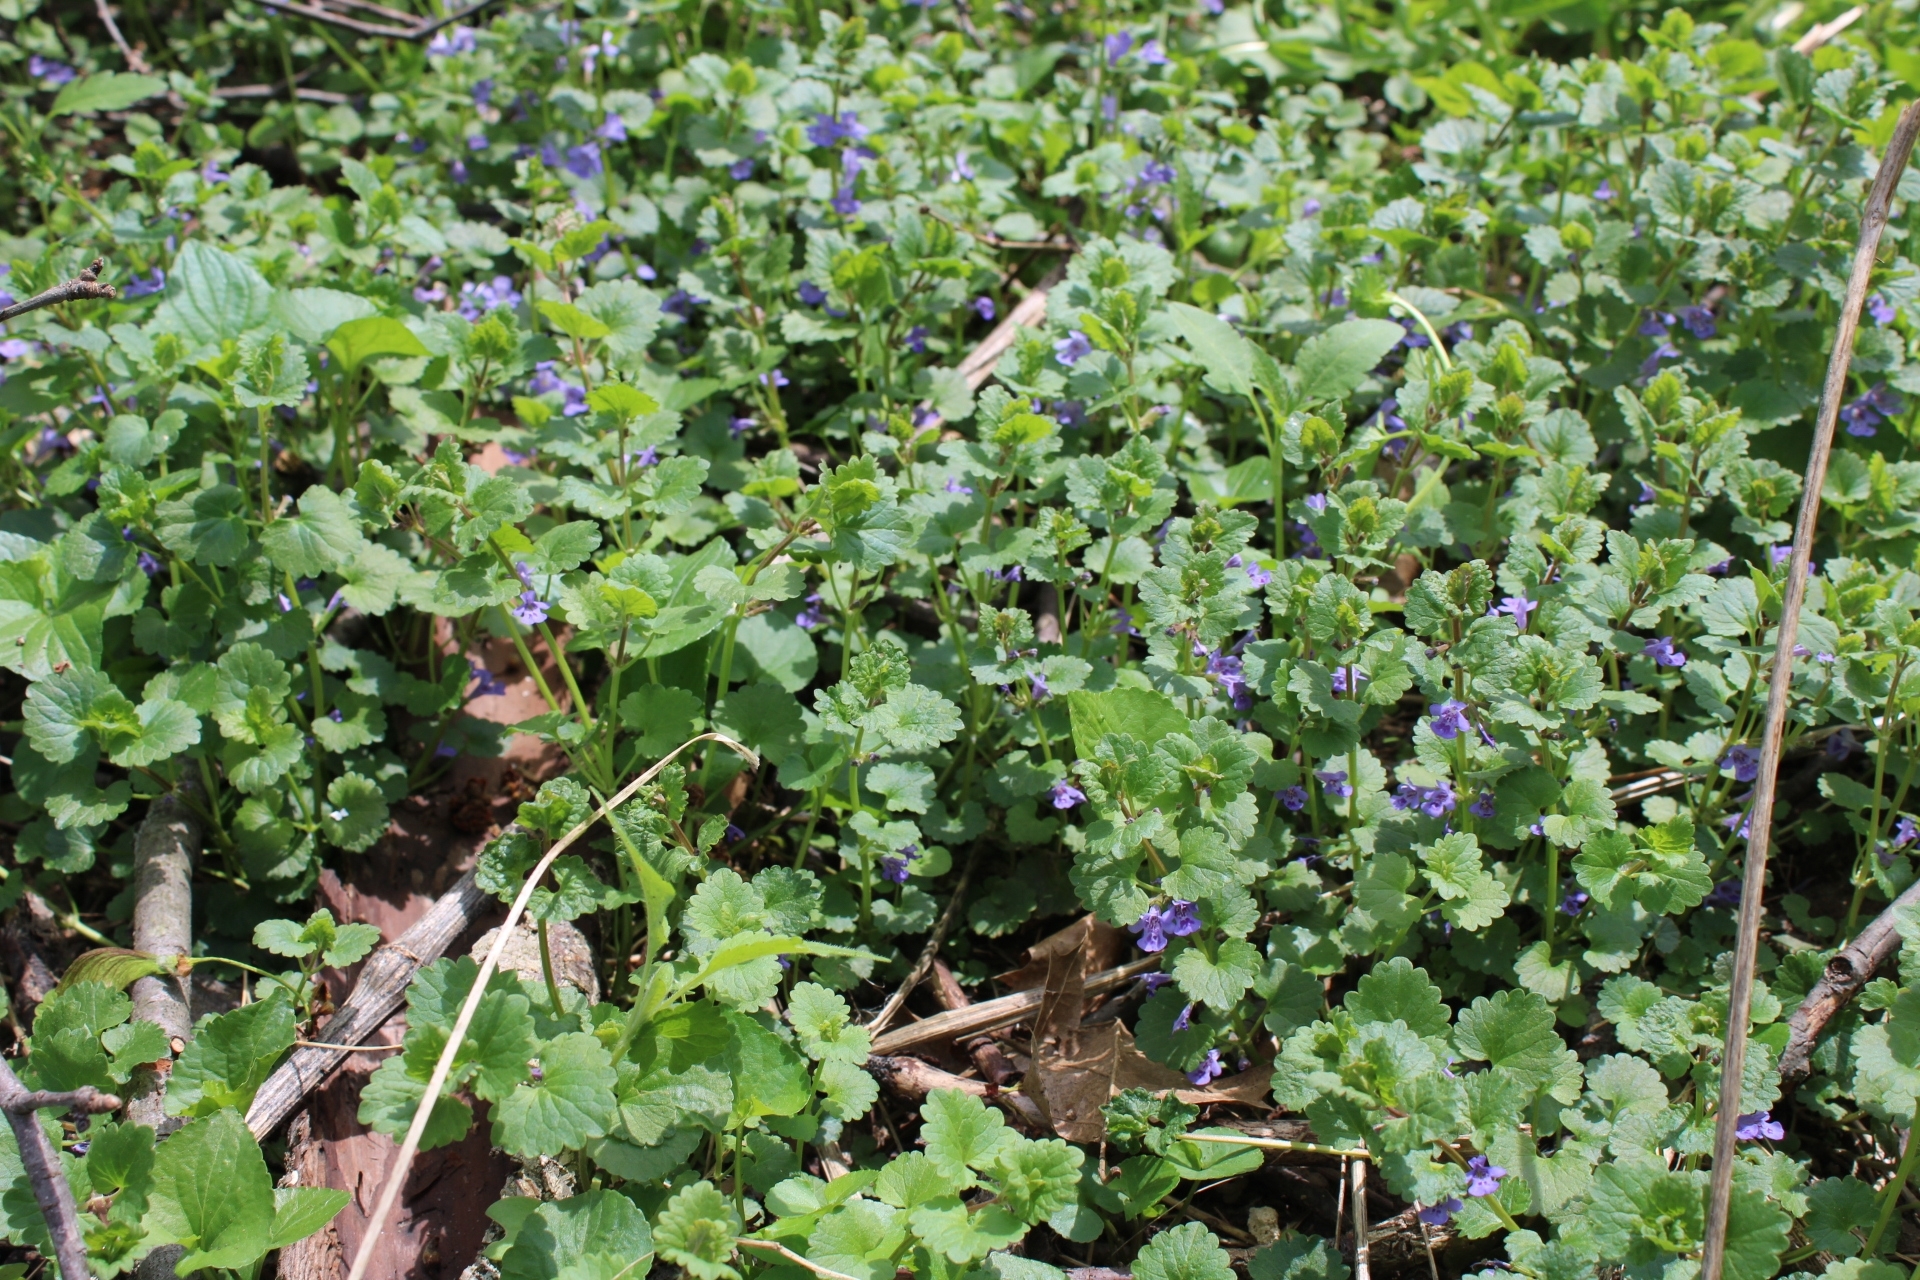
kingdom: Plantae
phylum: Tracheophyta
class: Magnoliopsida
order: Lamiales
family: Lamiaceae
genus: Glechoma
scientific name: Glechoma hederacea
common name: Ground ivy
